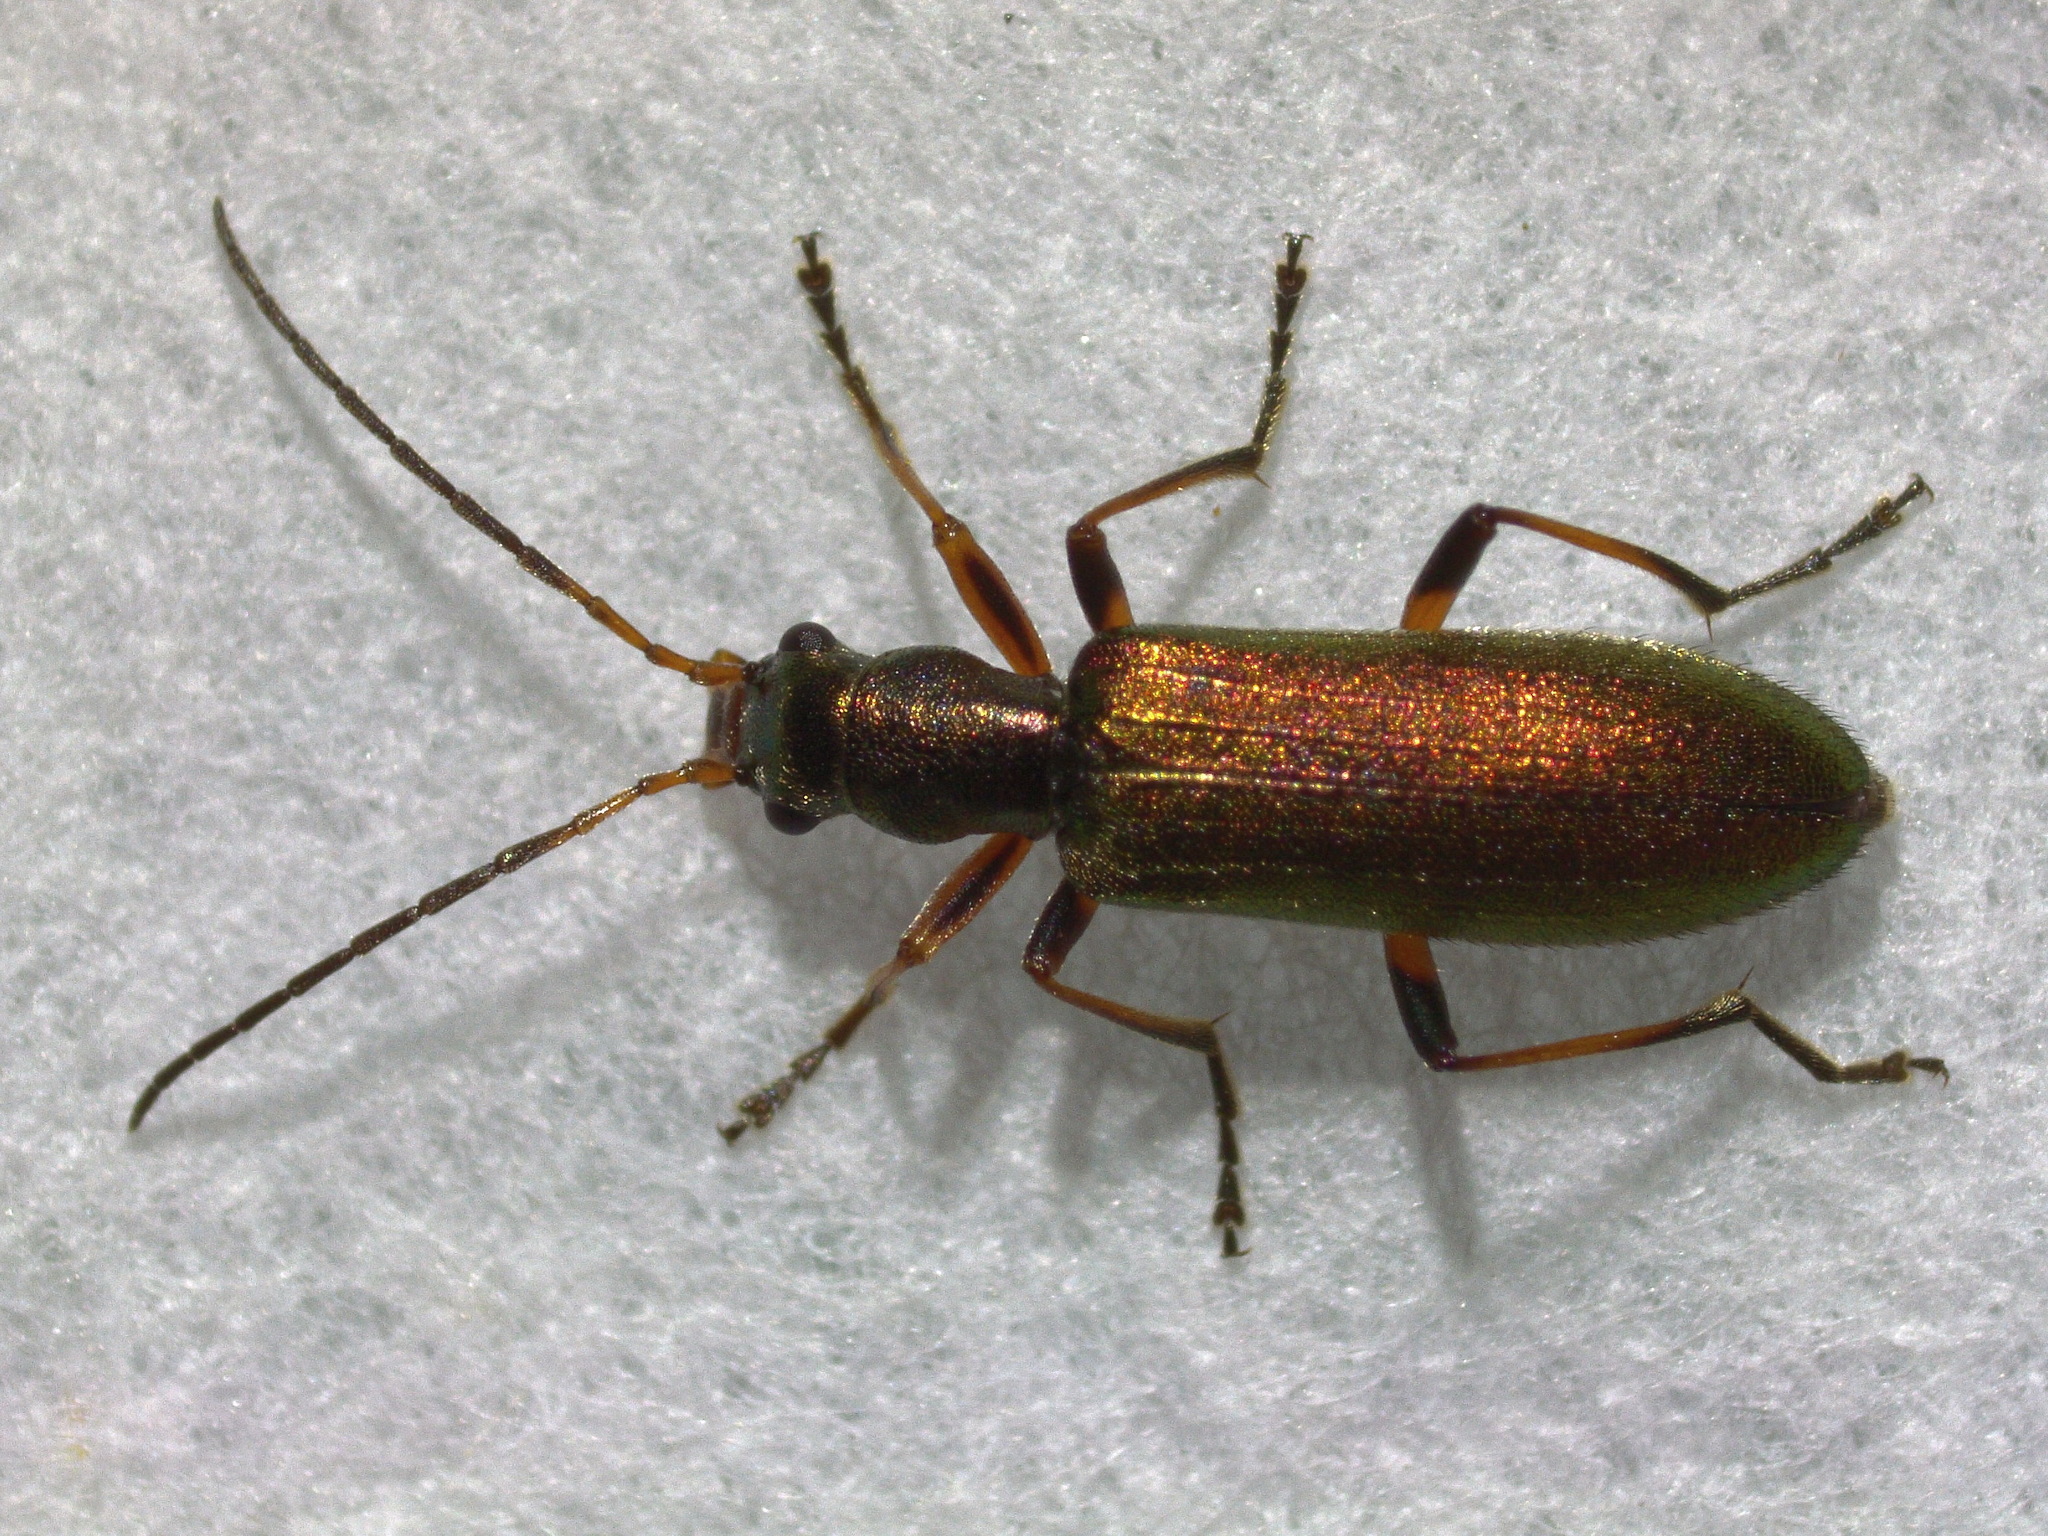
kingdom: Animalia
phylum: Arthropoda
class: Insecta
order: Coleoptera
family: Oedemeridae
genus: Chrysanthia
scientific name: Chrysanthia geniculata
